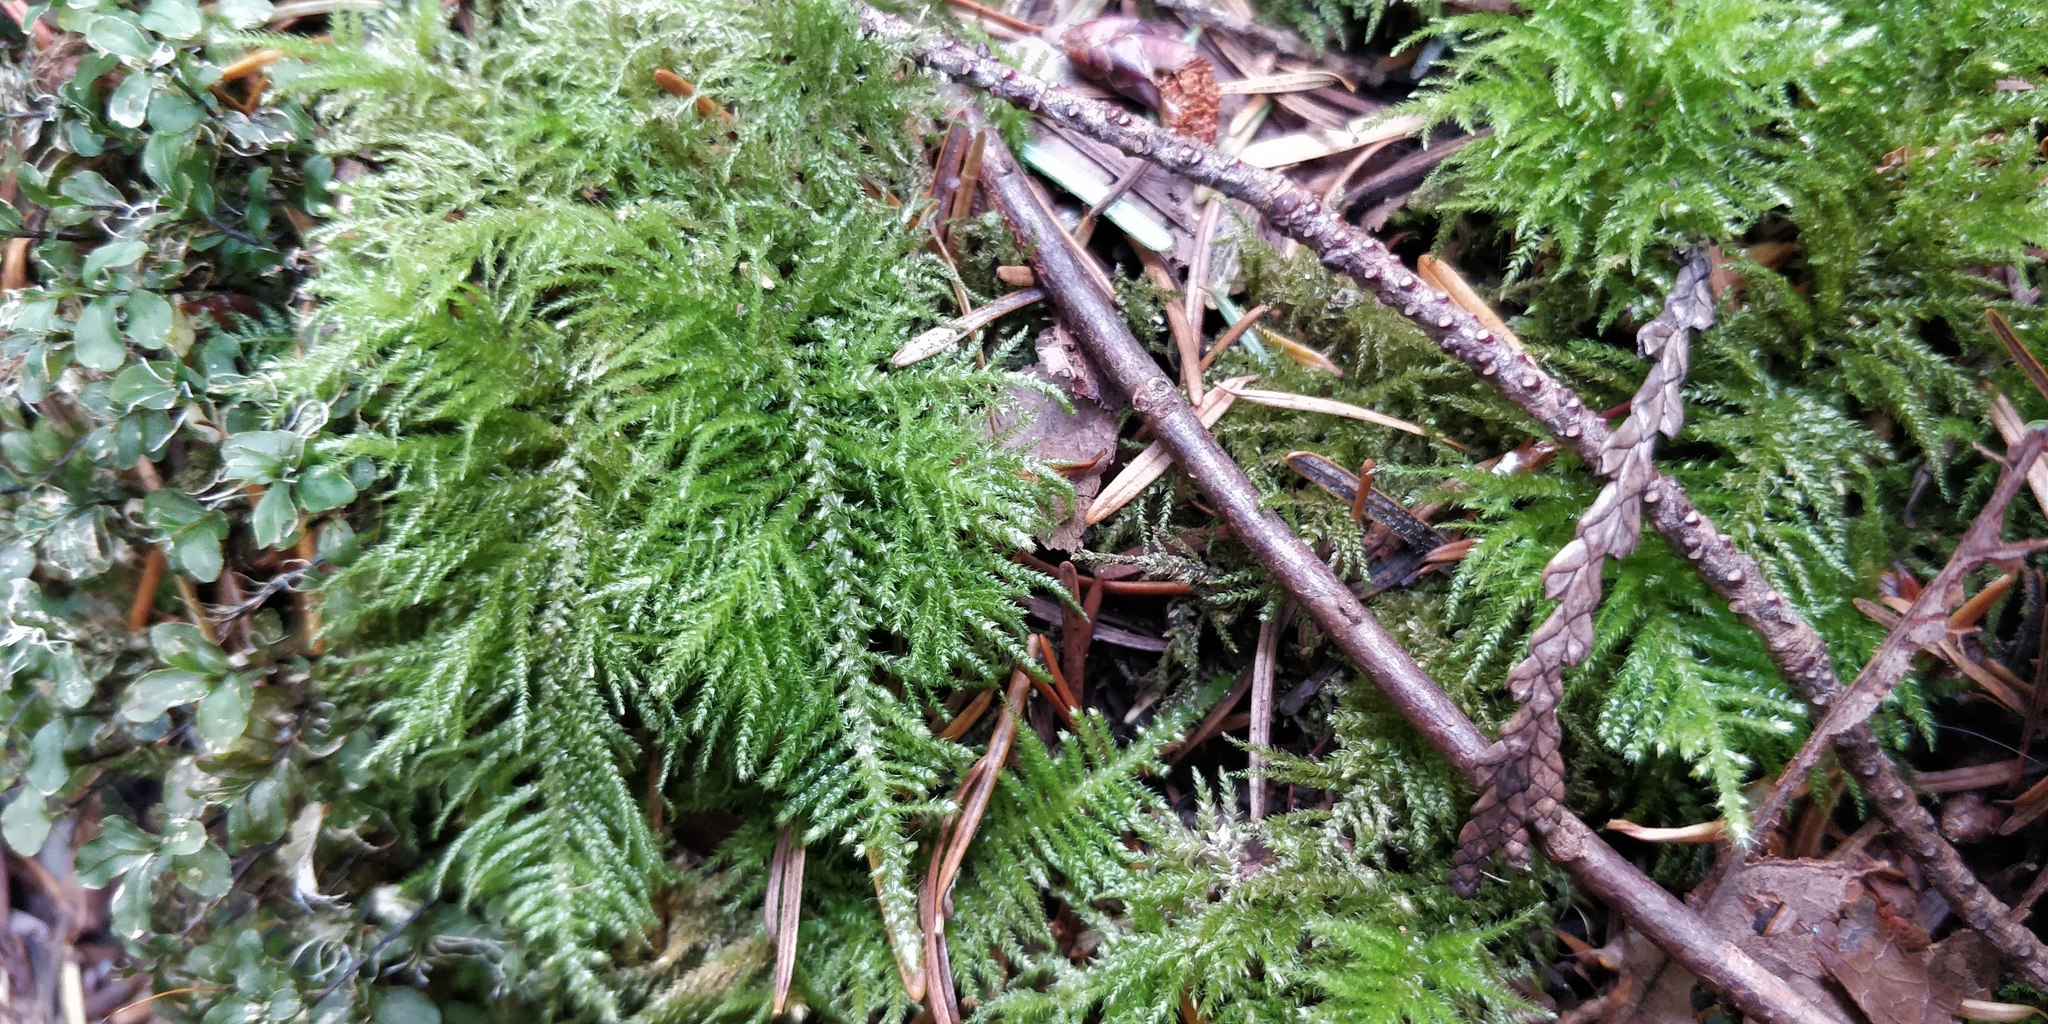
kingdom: Plantae
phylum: Bryophyta
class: Bryopsida
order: Hypnales
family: Brachytheciaceae
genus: Kindbergia
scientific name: Kindbergia oregana
